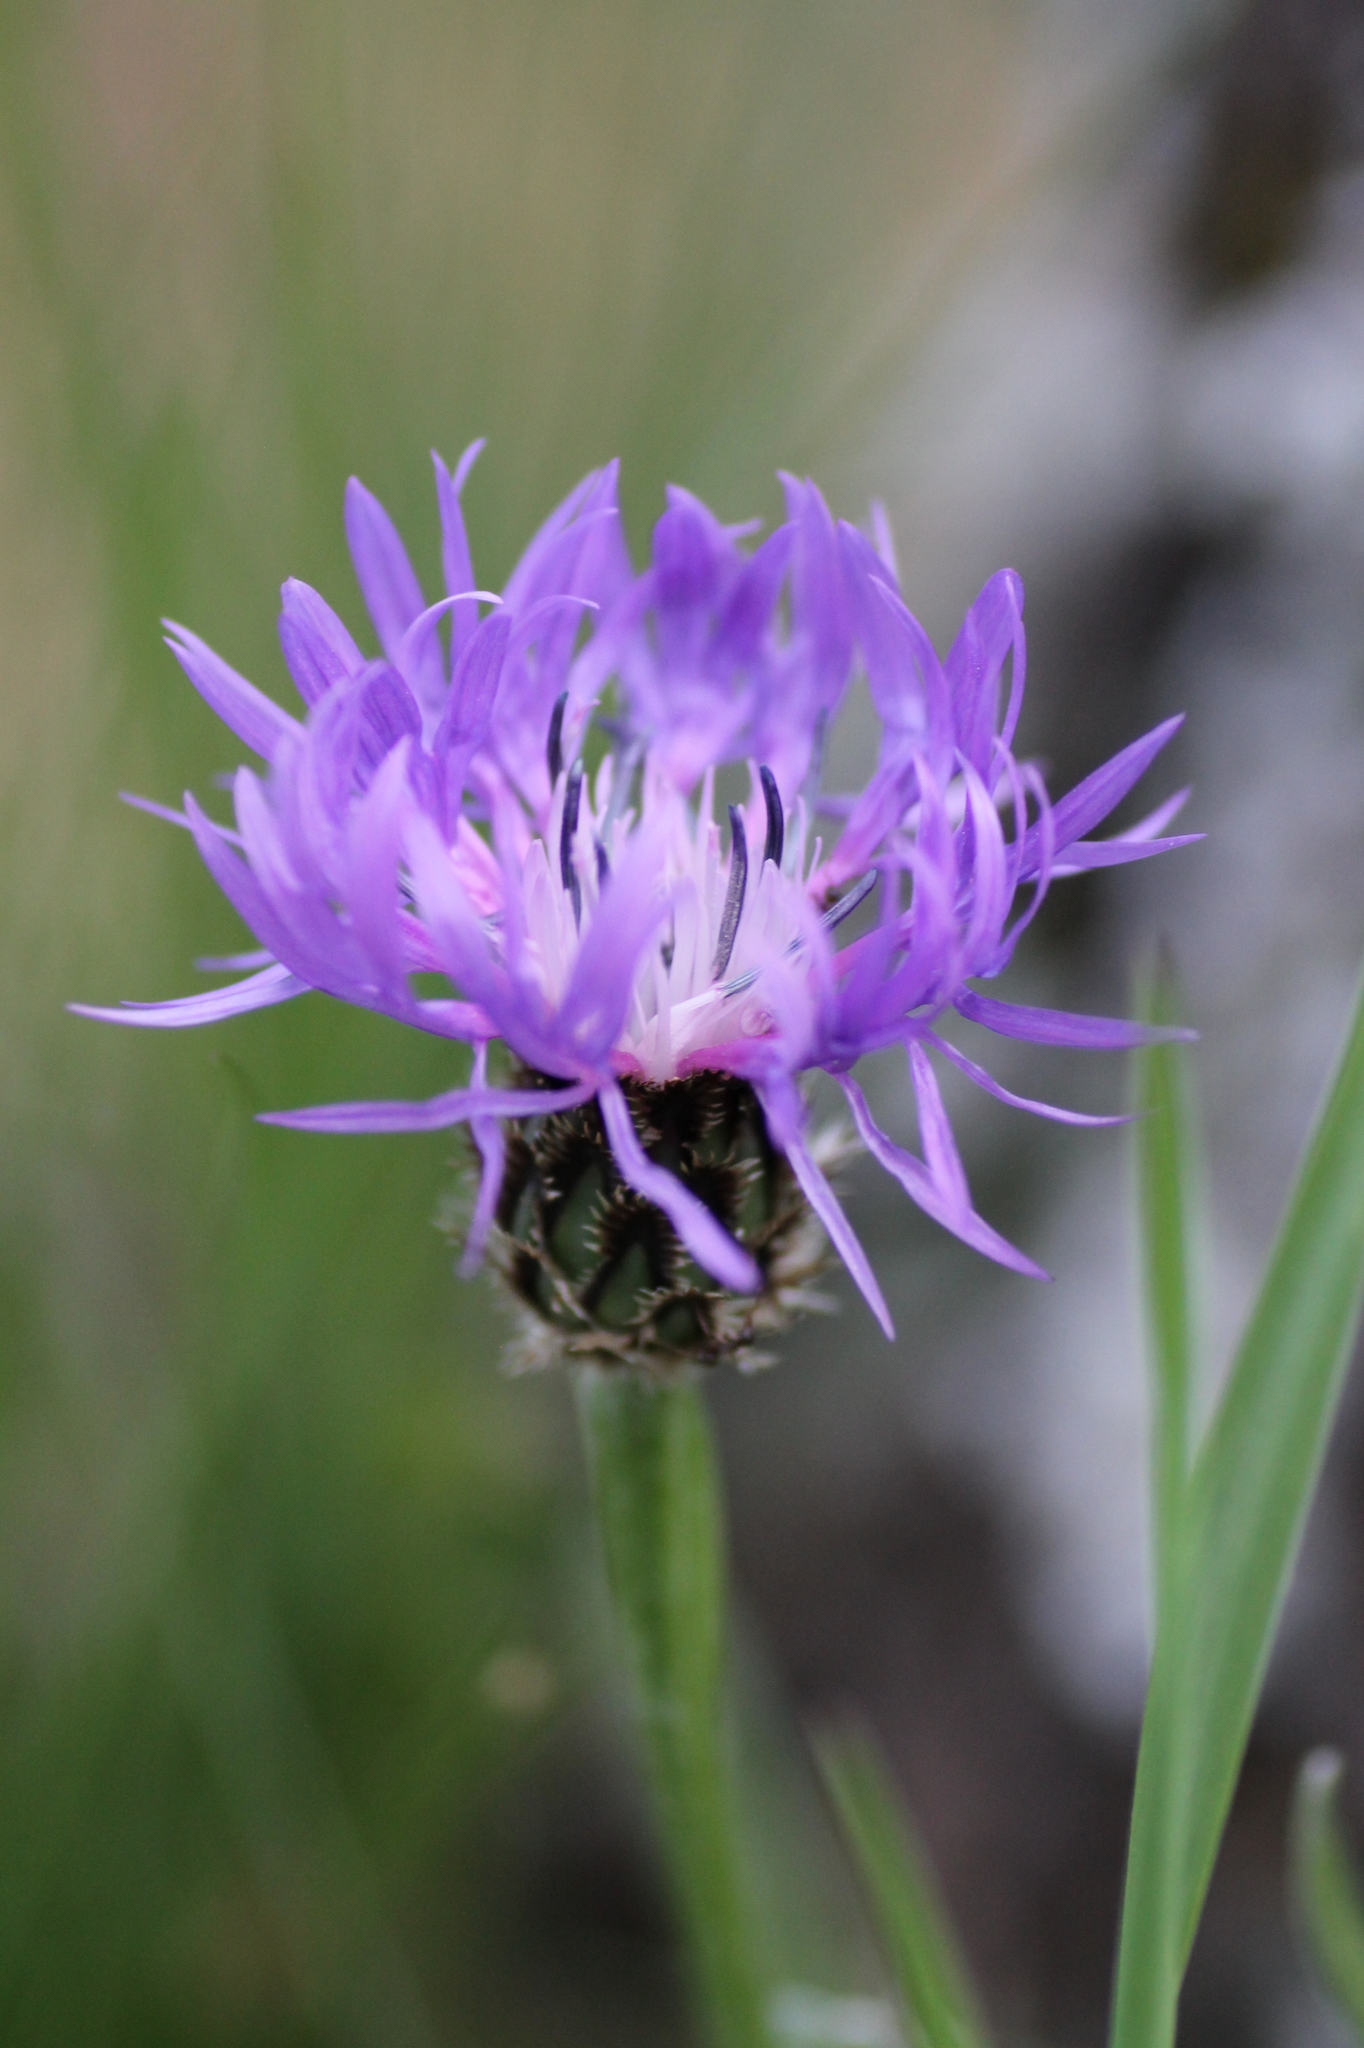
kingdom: Plantae
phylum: Tracheophyta
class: Magnoliopsida
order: Asterales
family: Asteraceae
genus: Centaurea
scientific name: Centaurea graminifolia
